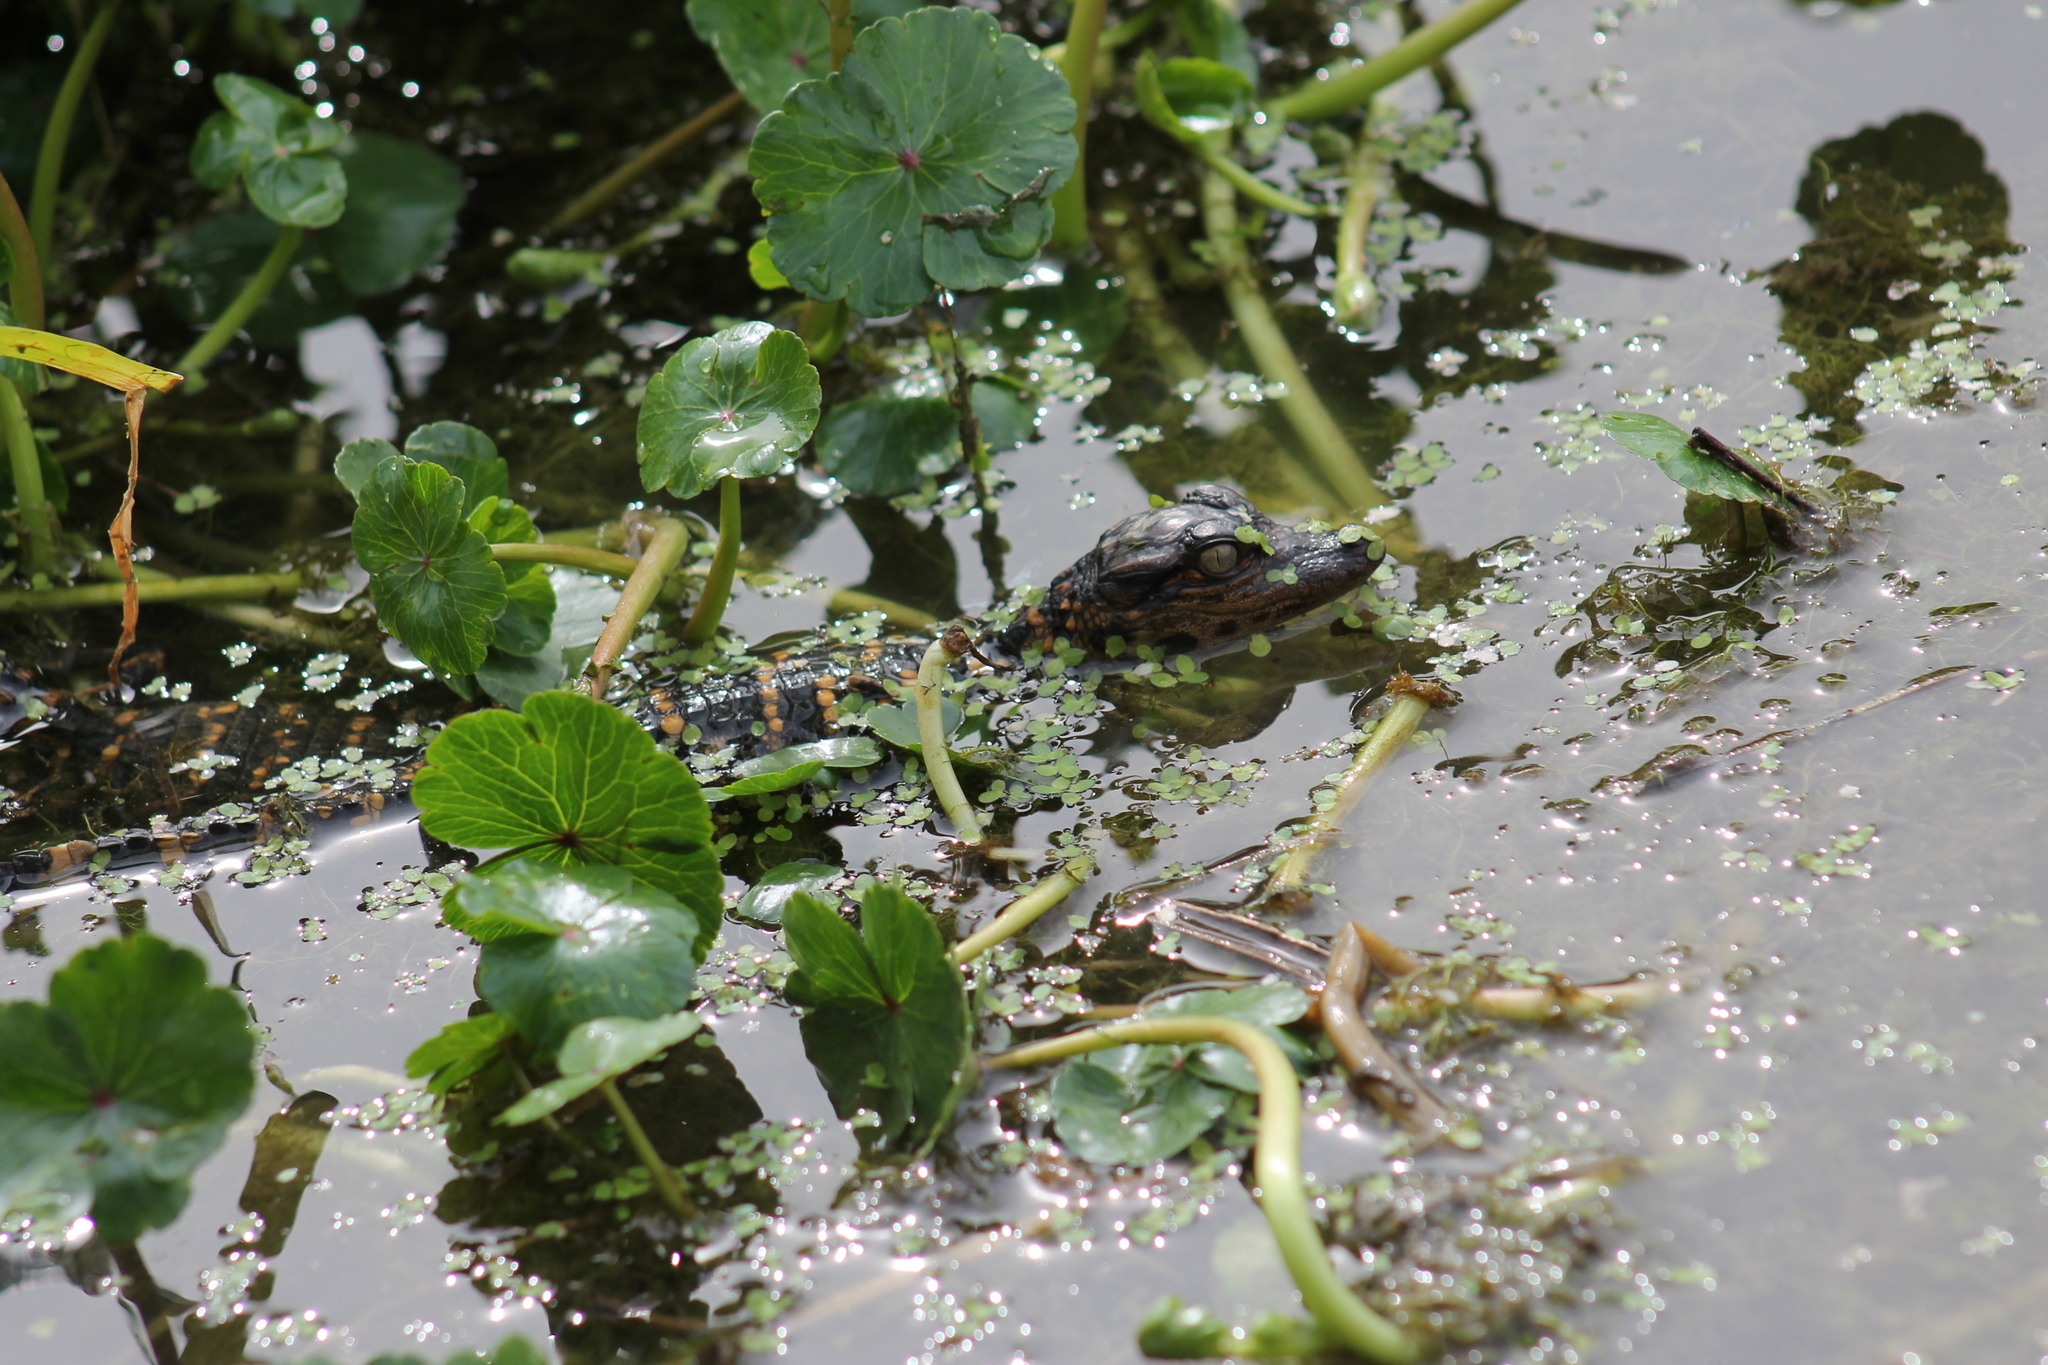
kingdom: Animalia
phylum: Chordata
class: Crocodylia
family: Alligatoridae
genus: Alligator
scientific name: Alligator mississippiensis
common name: American alligator
